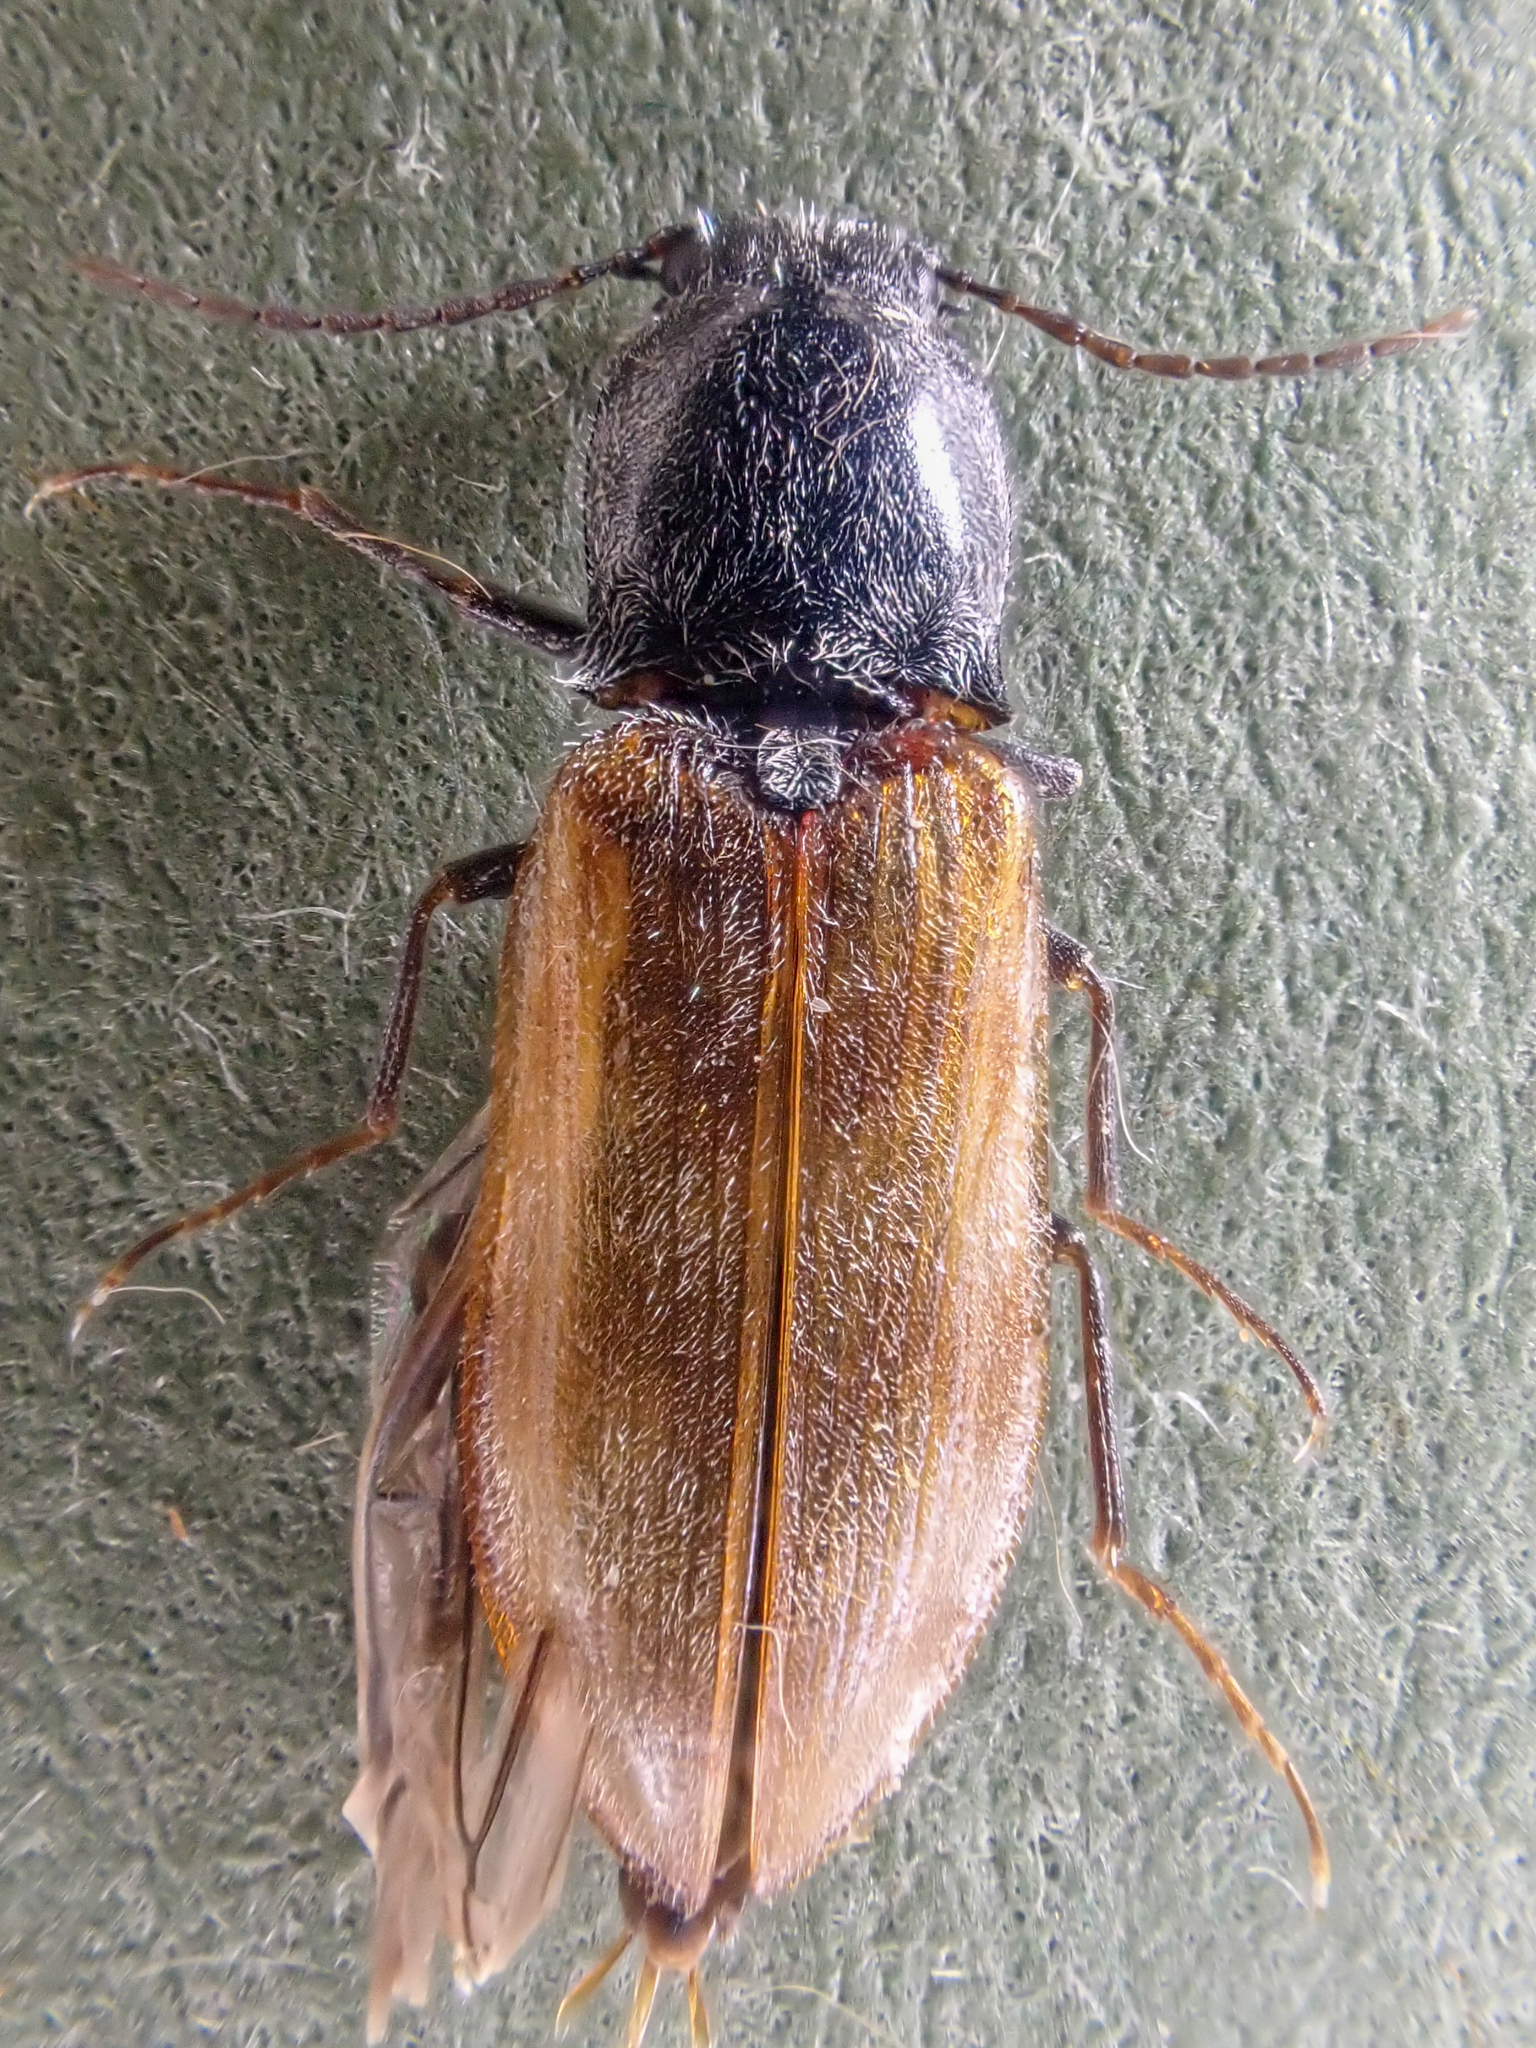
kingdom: Animalia
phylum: Arthropoda
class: Insecta
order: Coleoptera
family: Elateridae
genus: Pseudanostirus
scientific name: Pseudanostirus triundulatus
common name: Three-spotted click beetle
